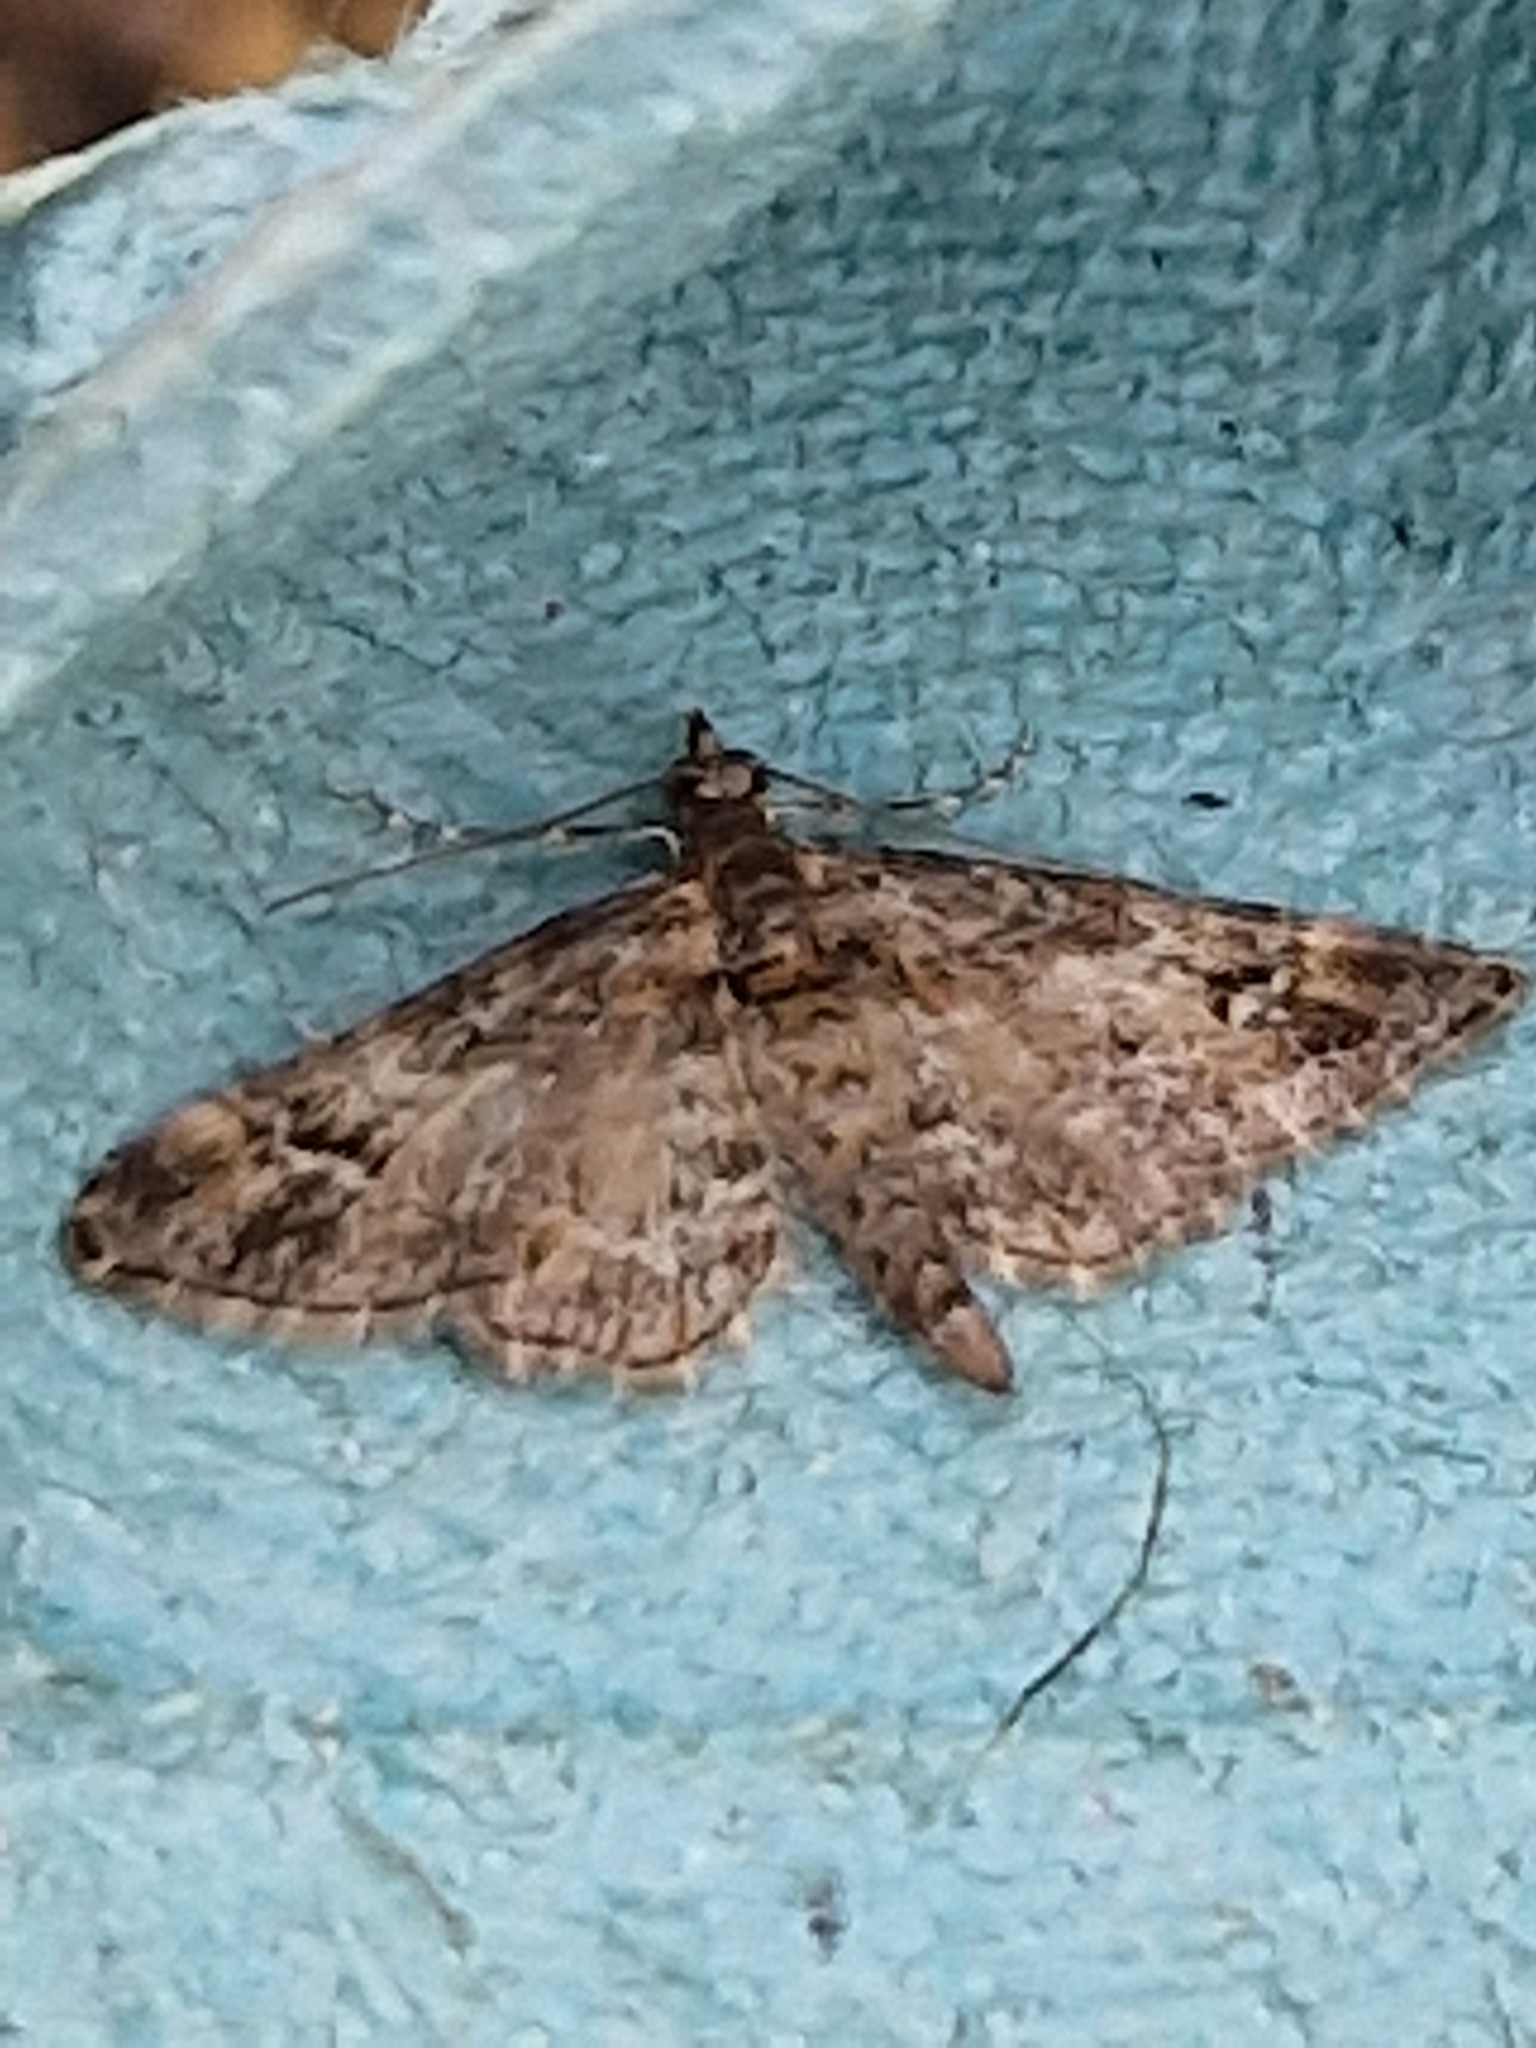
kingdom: Animalia
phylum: Arthropoda
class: Insecta
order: Lepidoptera
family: Geometridae
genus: Gymnoscelis
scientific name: Gymnoscelis rufifasciata
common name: Double-striped pug
